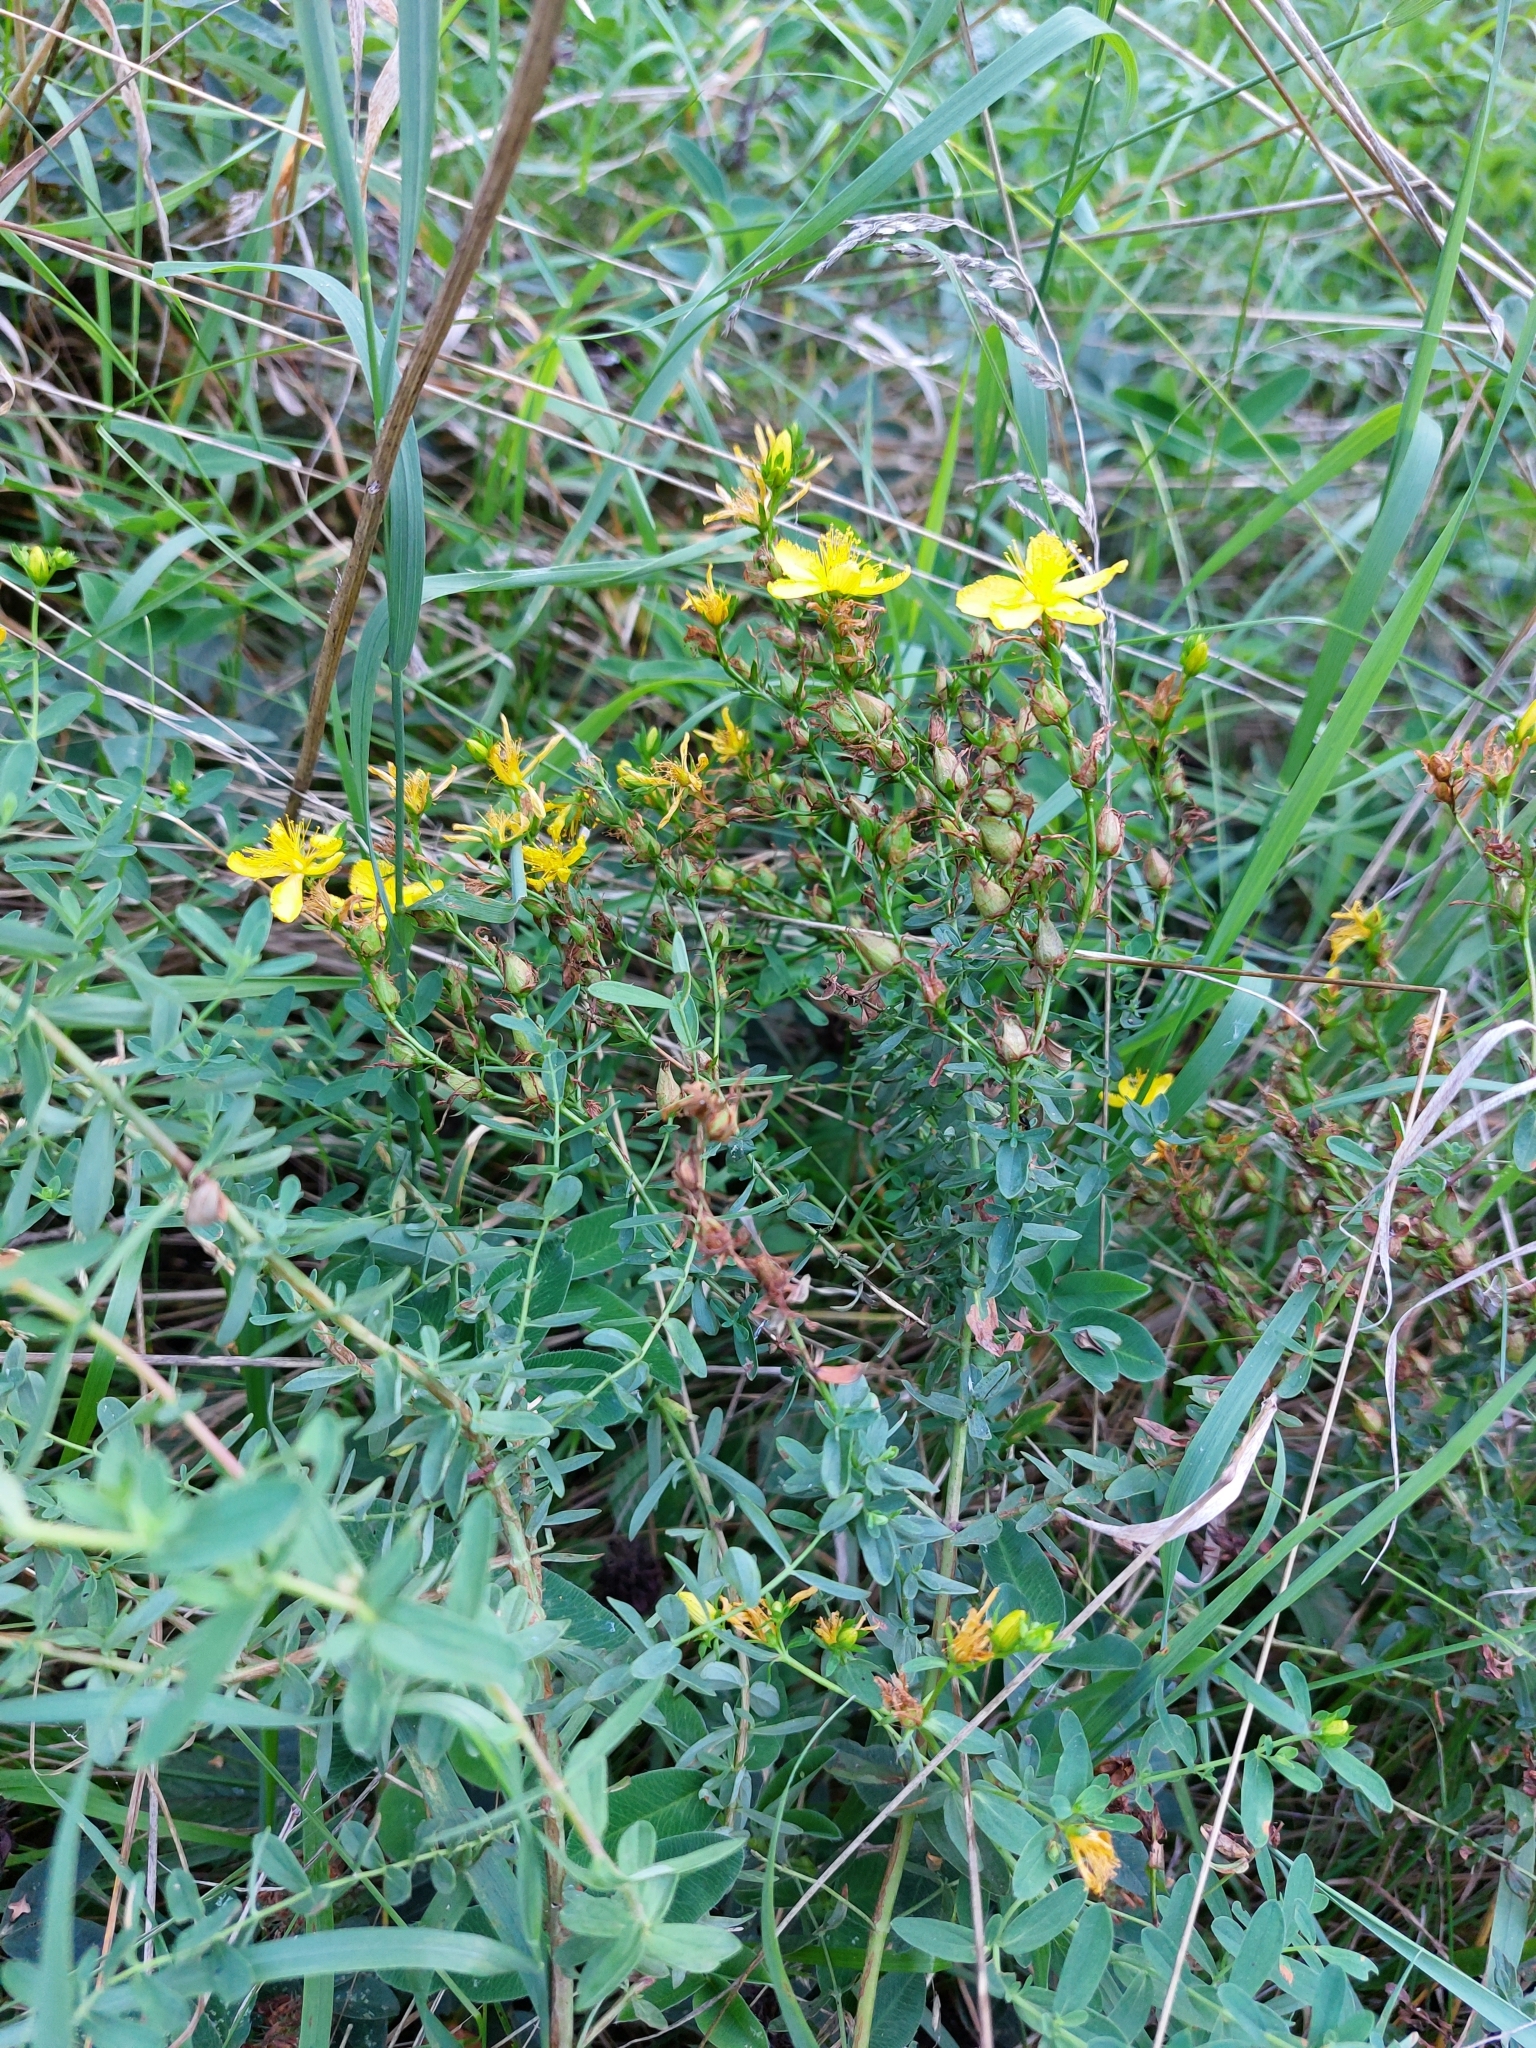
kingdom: Plantae
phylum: Tracheophyta
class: Magnoliopsida
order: Malpighiales
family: Hypericaceae
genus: Hypericum
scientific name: Hypericum perforatum
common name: Common st. johnswort
